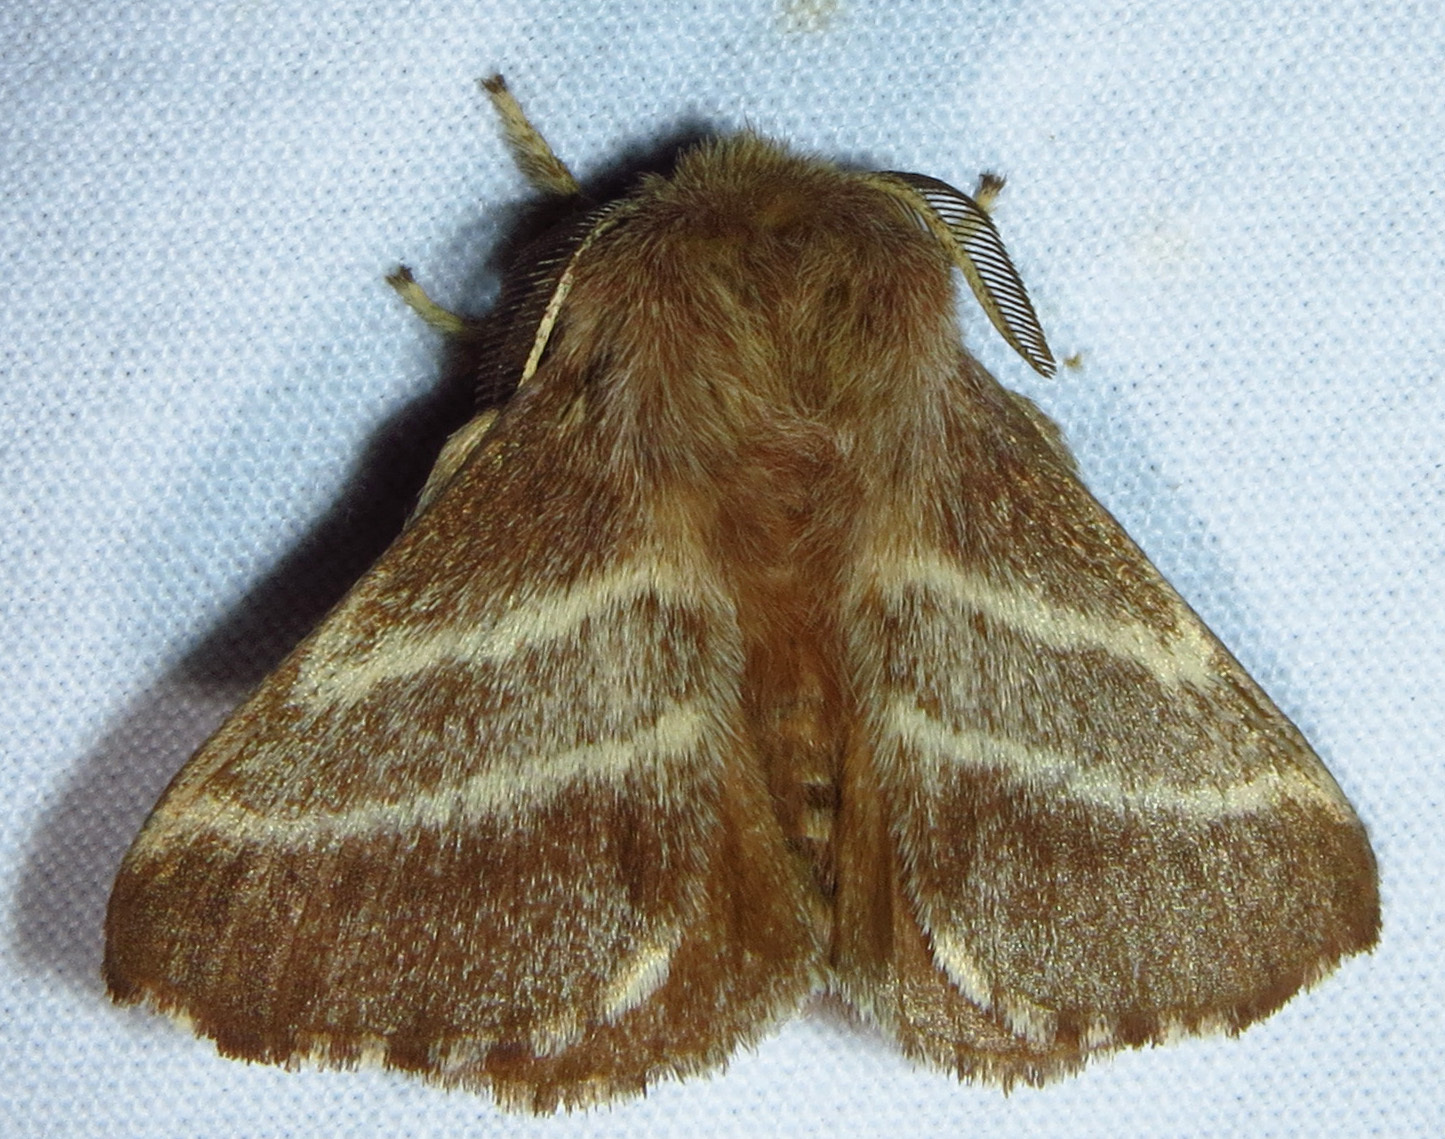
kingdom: Animalia
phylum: Arthropoda
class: Insecta
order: Lepidoptera
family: Lasiocampidae
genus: Malacosoma
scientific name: Malacosoma americana
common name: Eastern tent caterpillar moth
